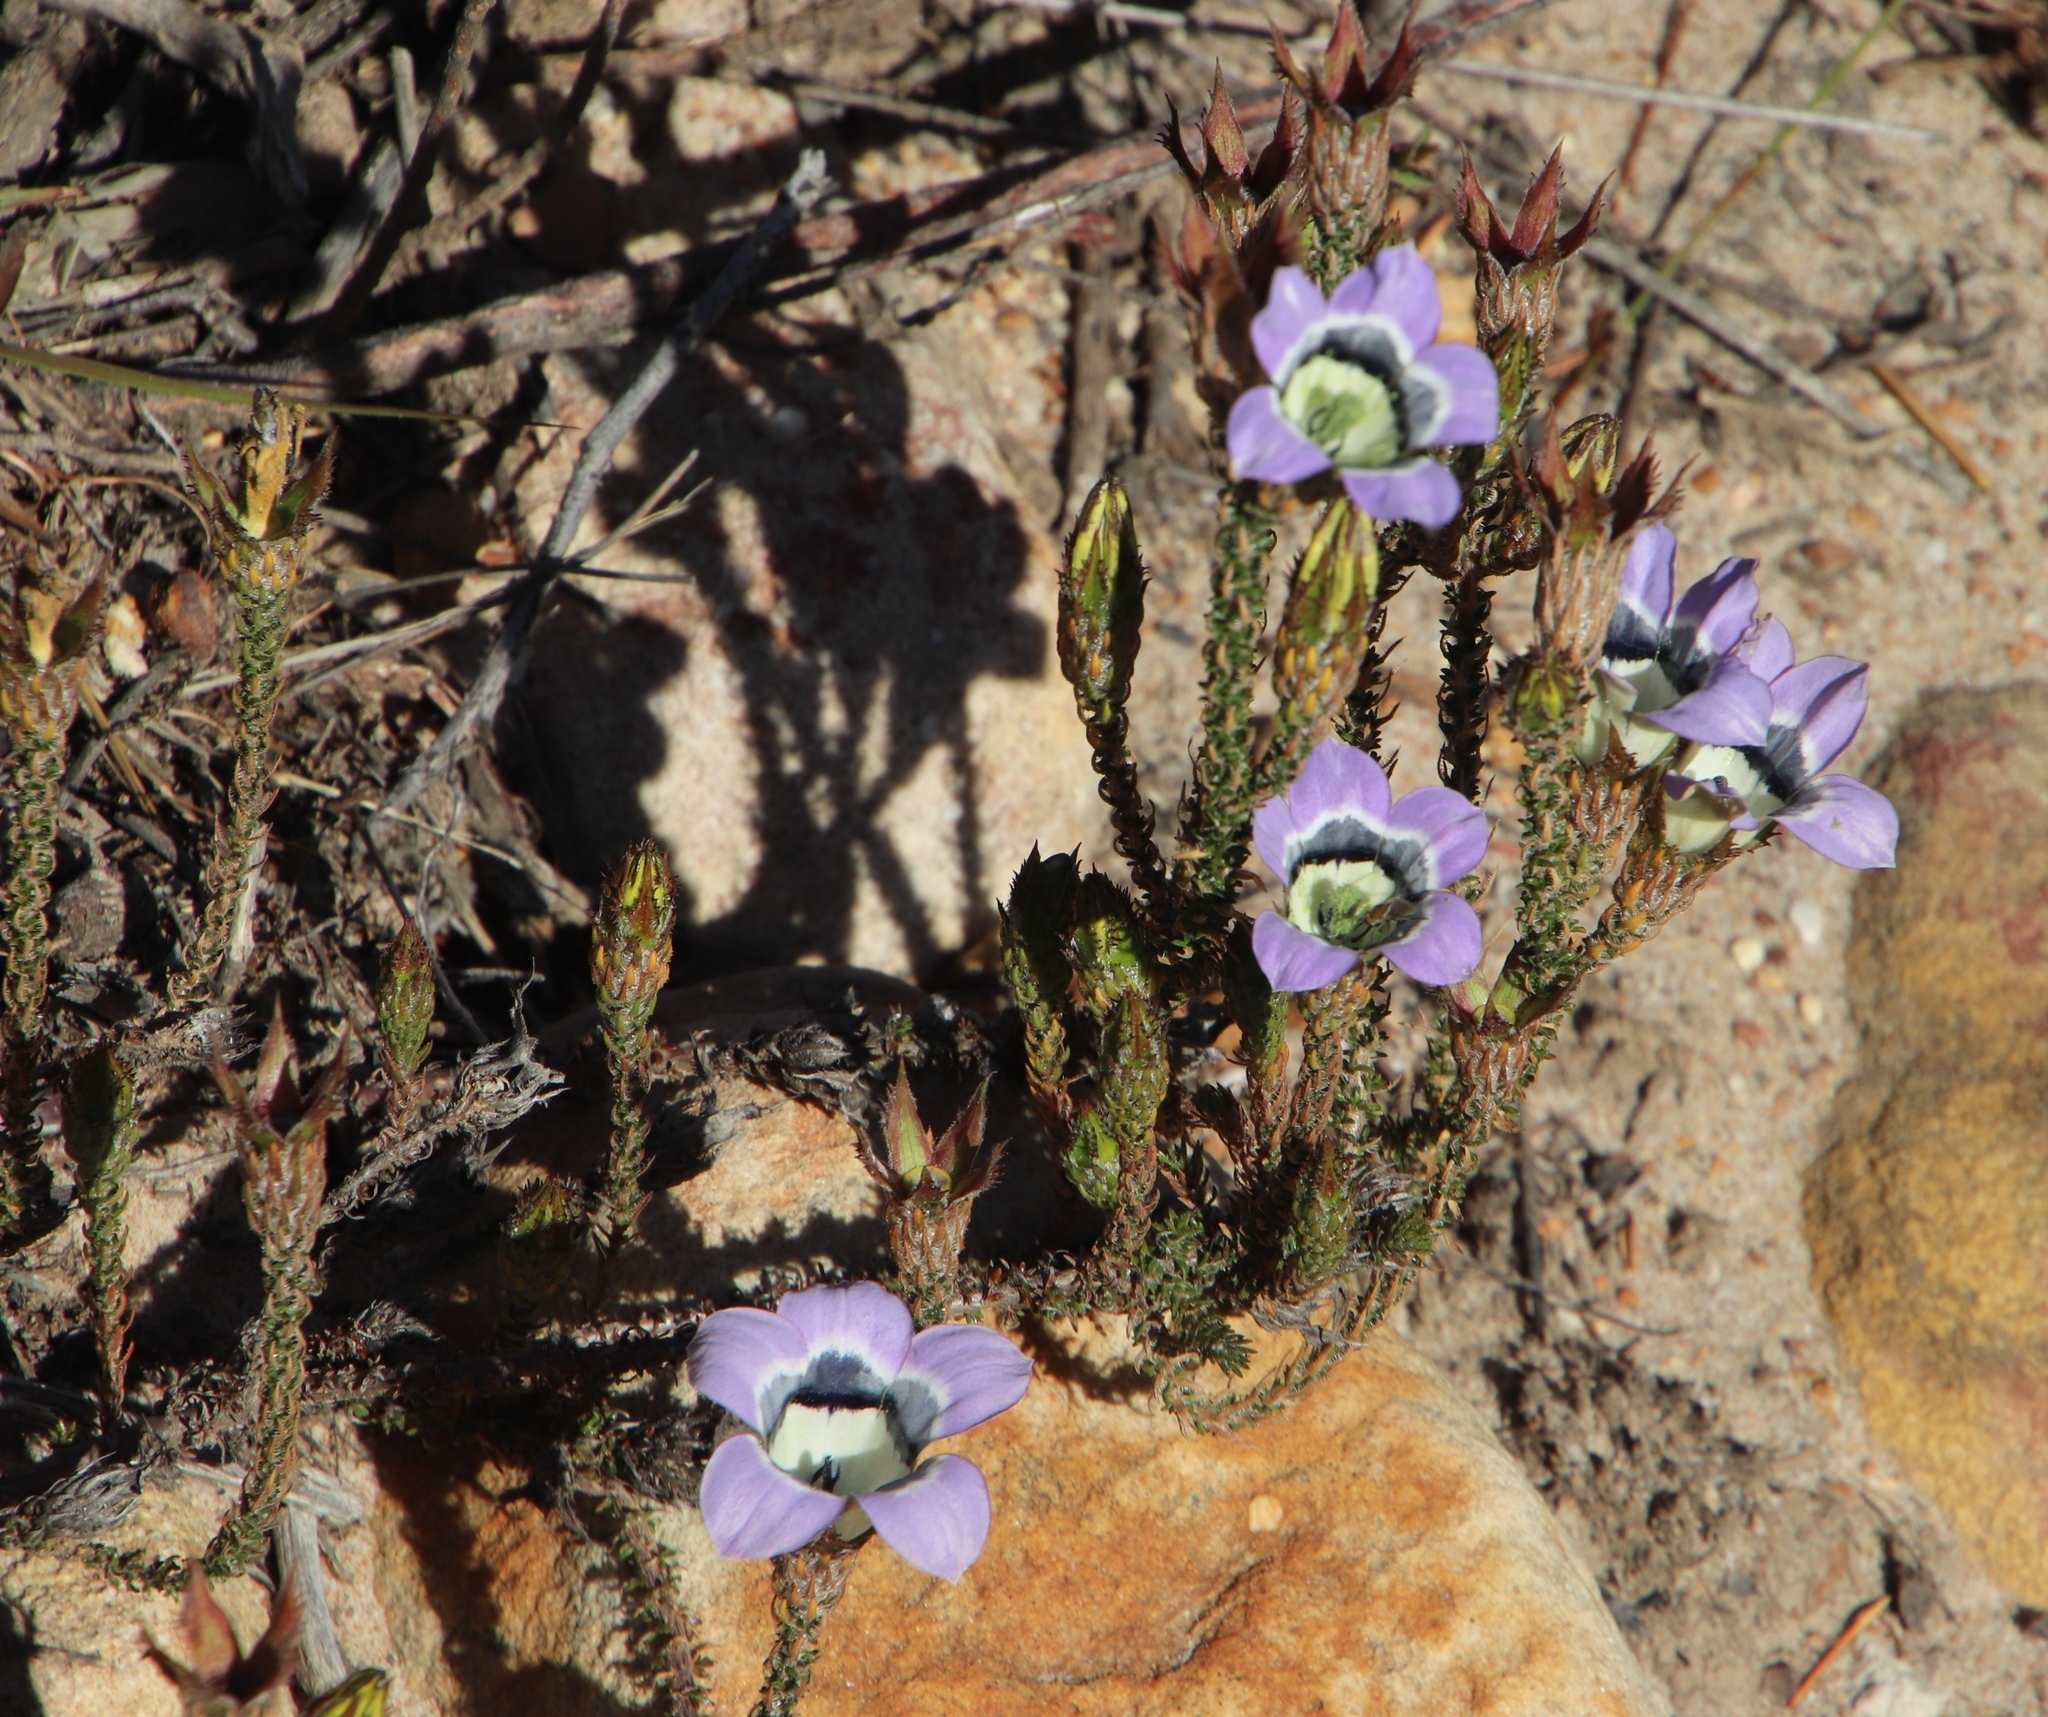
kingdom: Plantae
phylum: Tracheophyta
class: Magnoliopsida
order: Asterales
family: Campanulaceae
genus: Roella
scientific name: Roella ciliata
